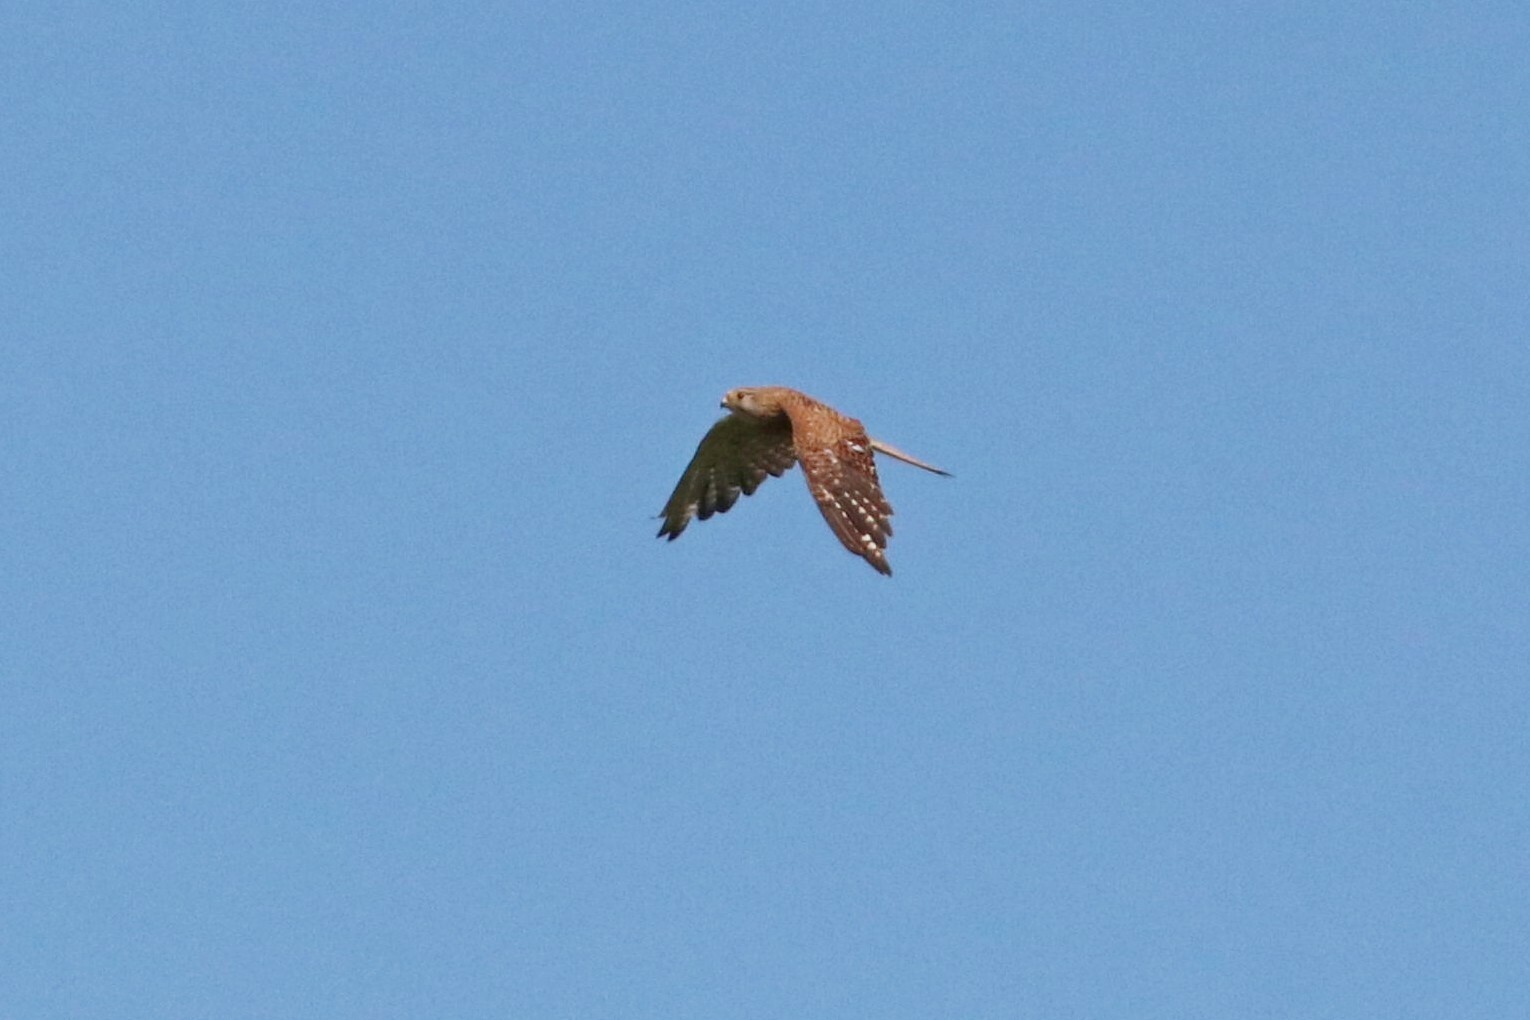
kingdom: Animalia
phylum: Chordata
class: Aves
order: Falconiformes
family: Falconidae
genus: Falco
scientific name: Falco tinnunculus
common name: Common kestrel
